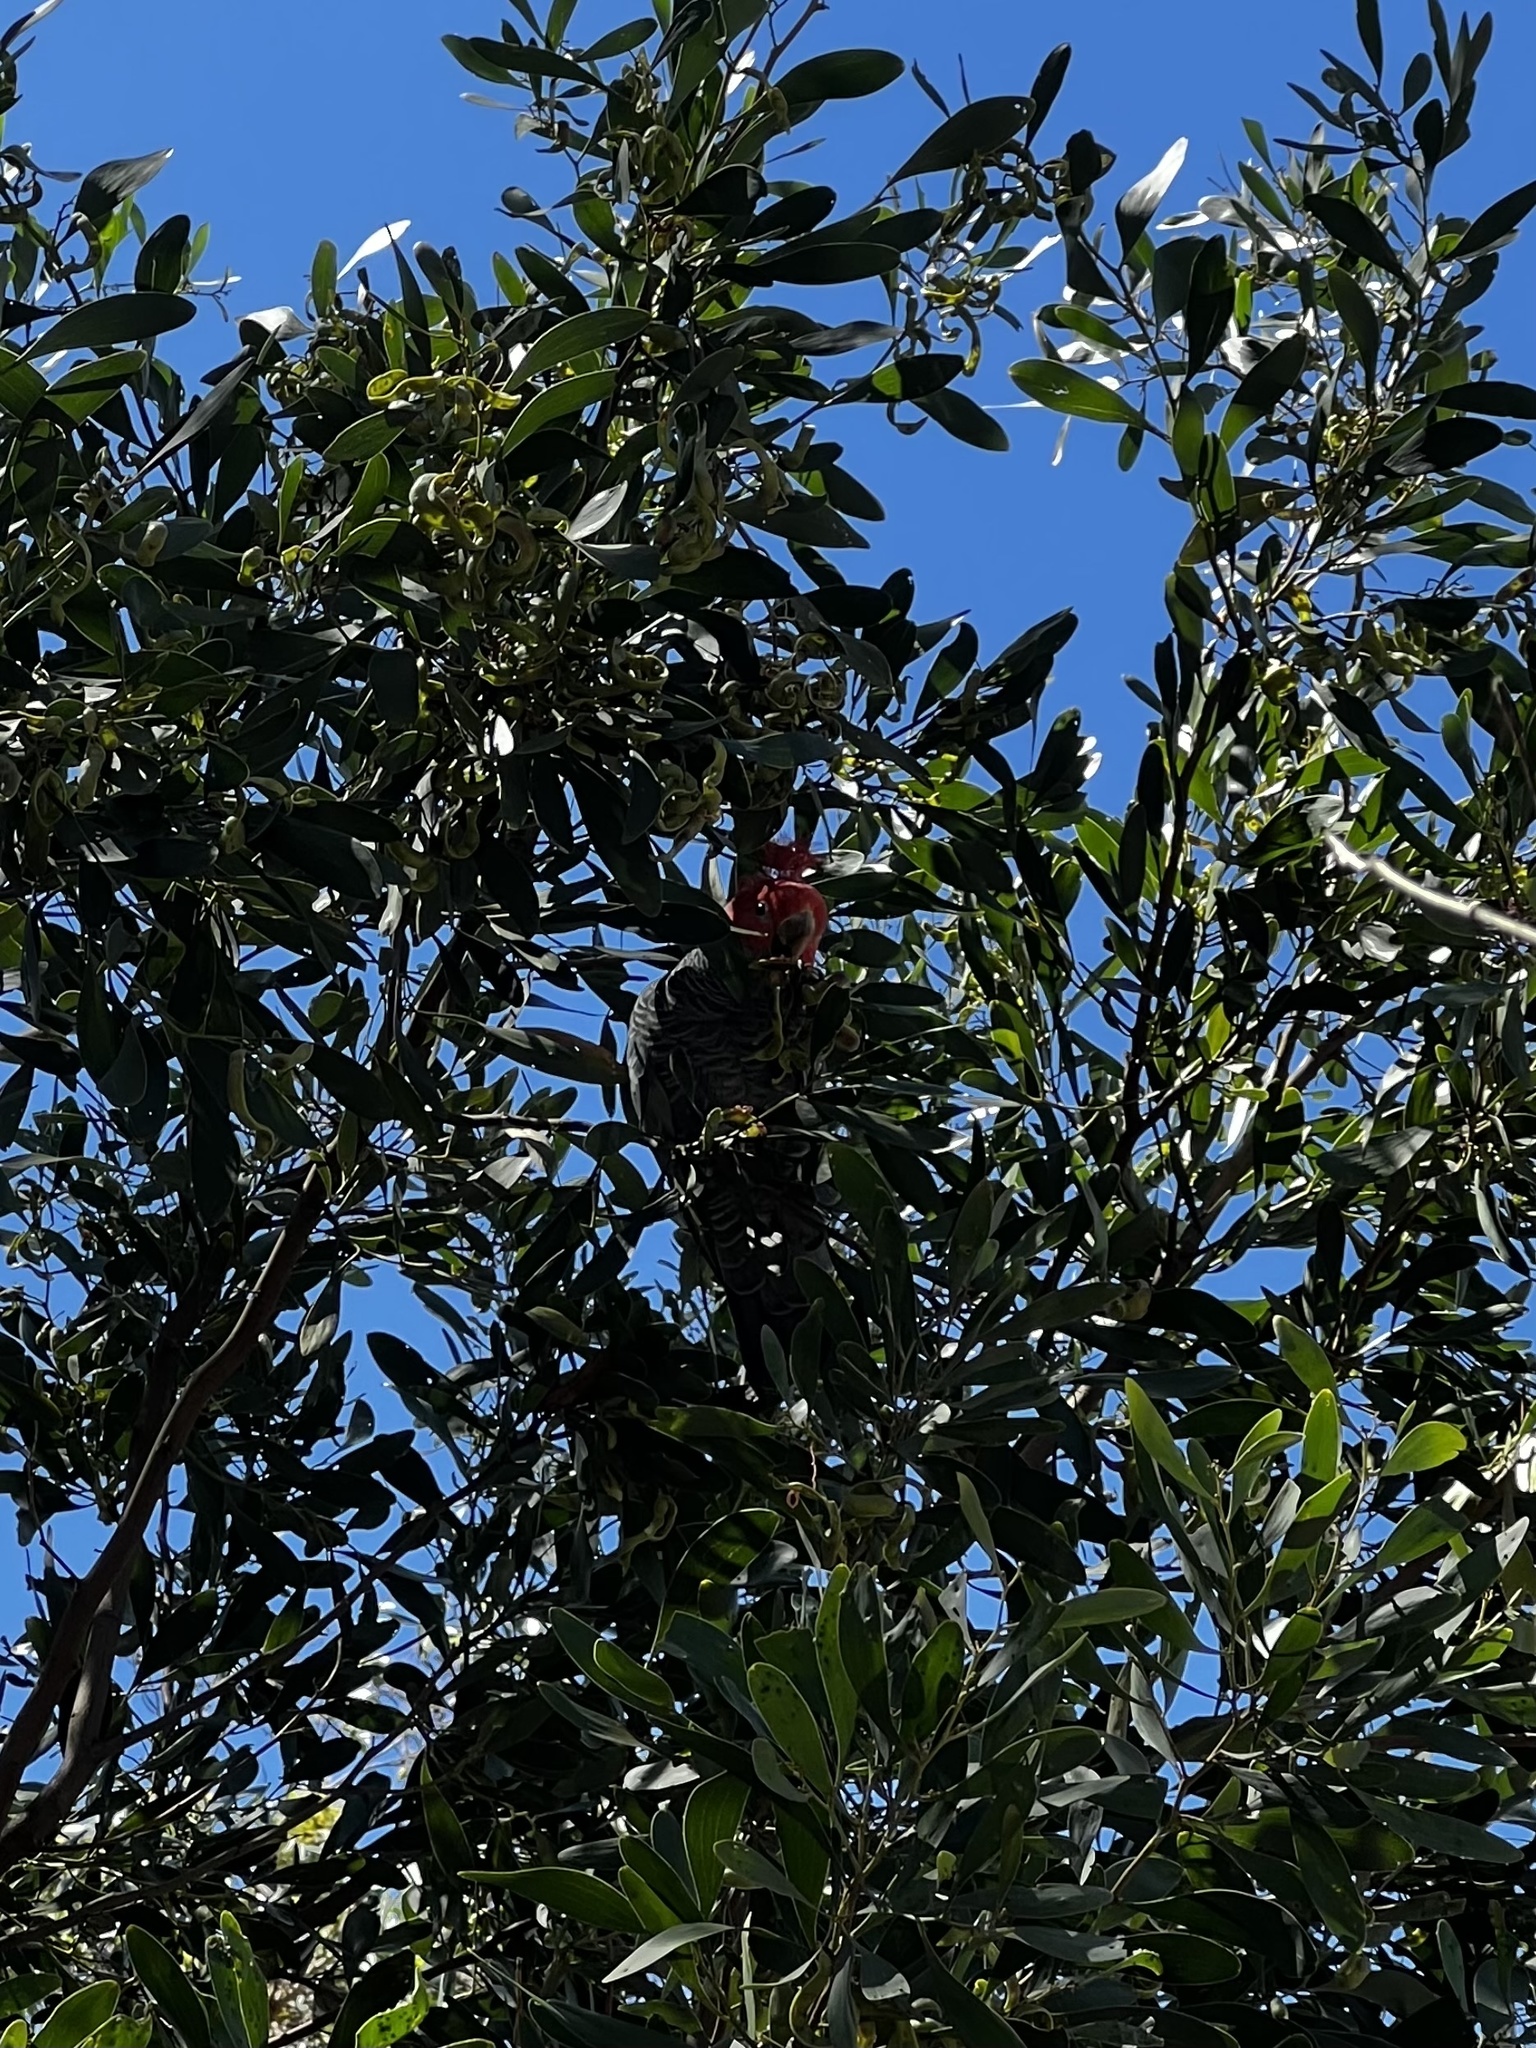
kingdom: Animalia
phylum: Chordata
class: Aves
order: Psittaciformes
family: Psittacidae
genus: Callocephalon
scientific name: Callocephalon fimbriatum
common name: Gang-gang cockatoo
